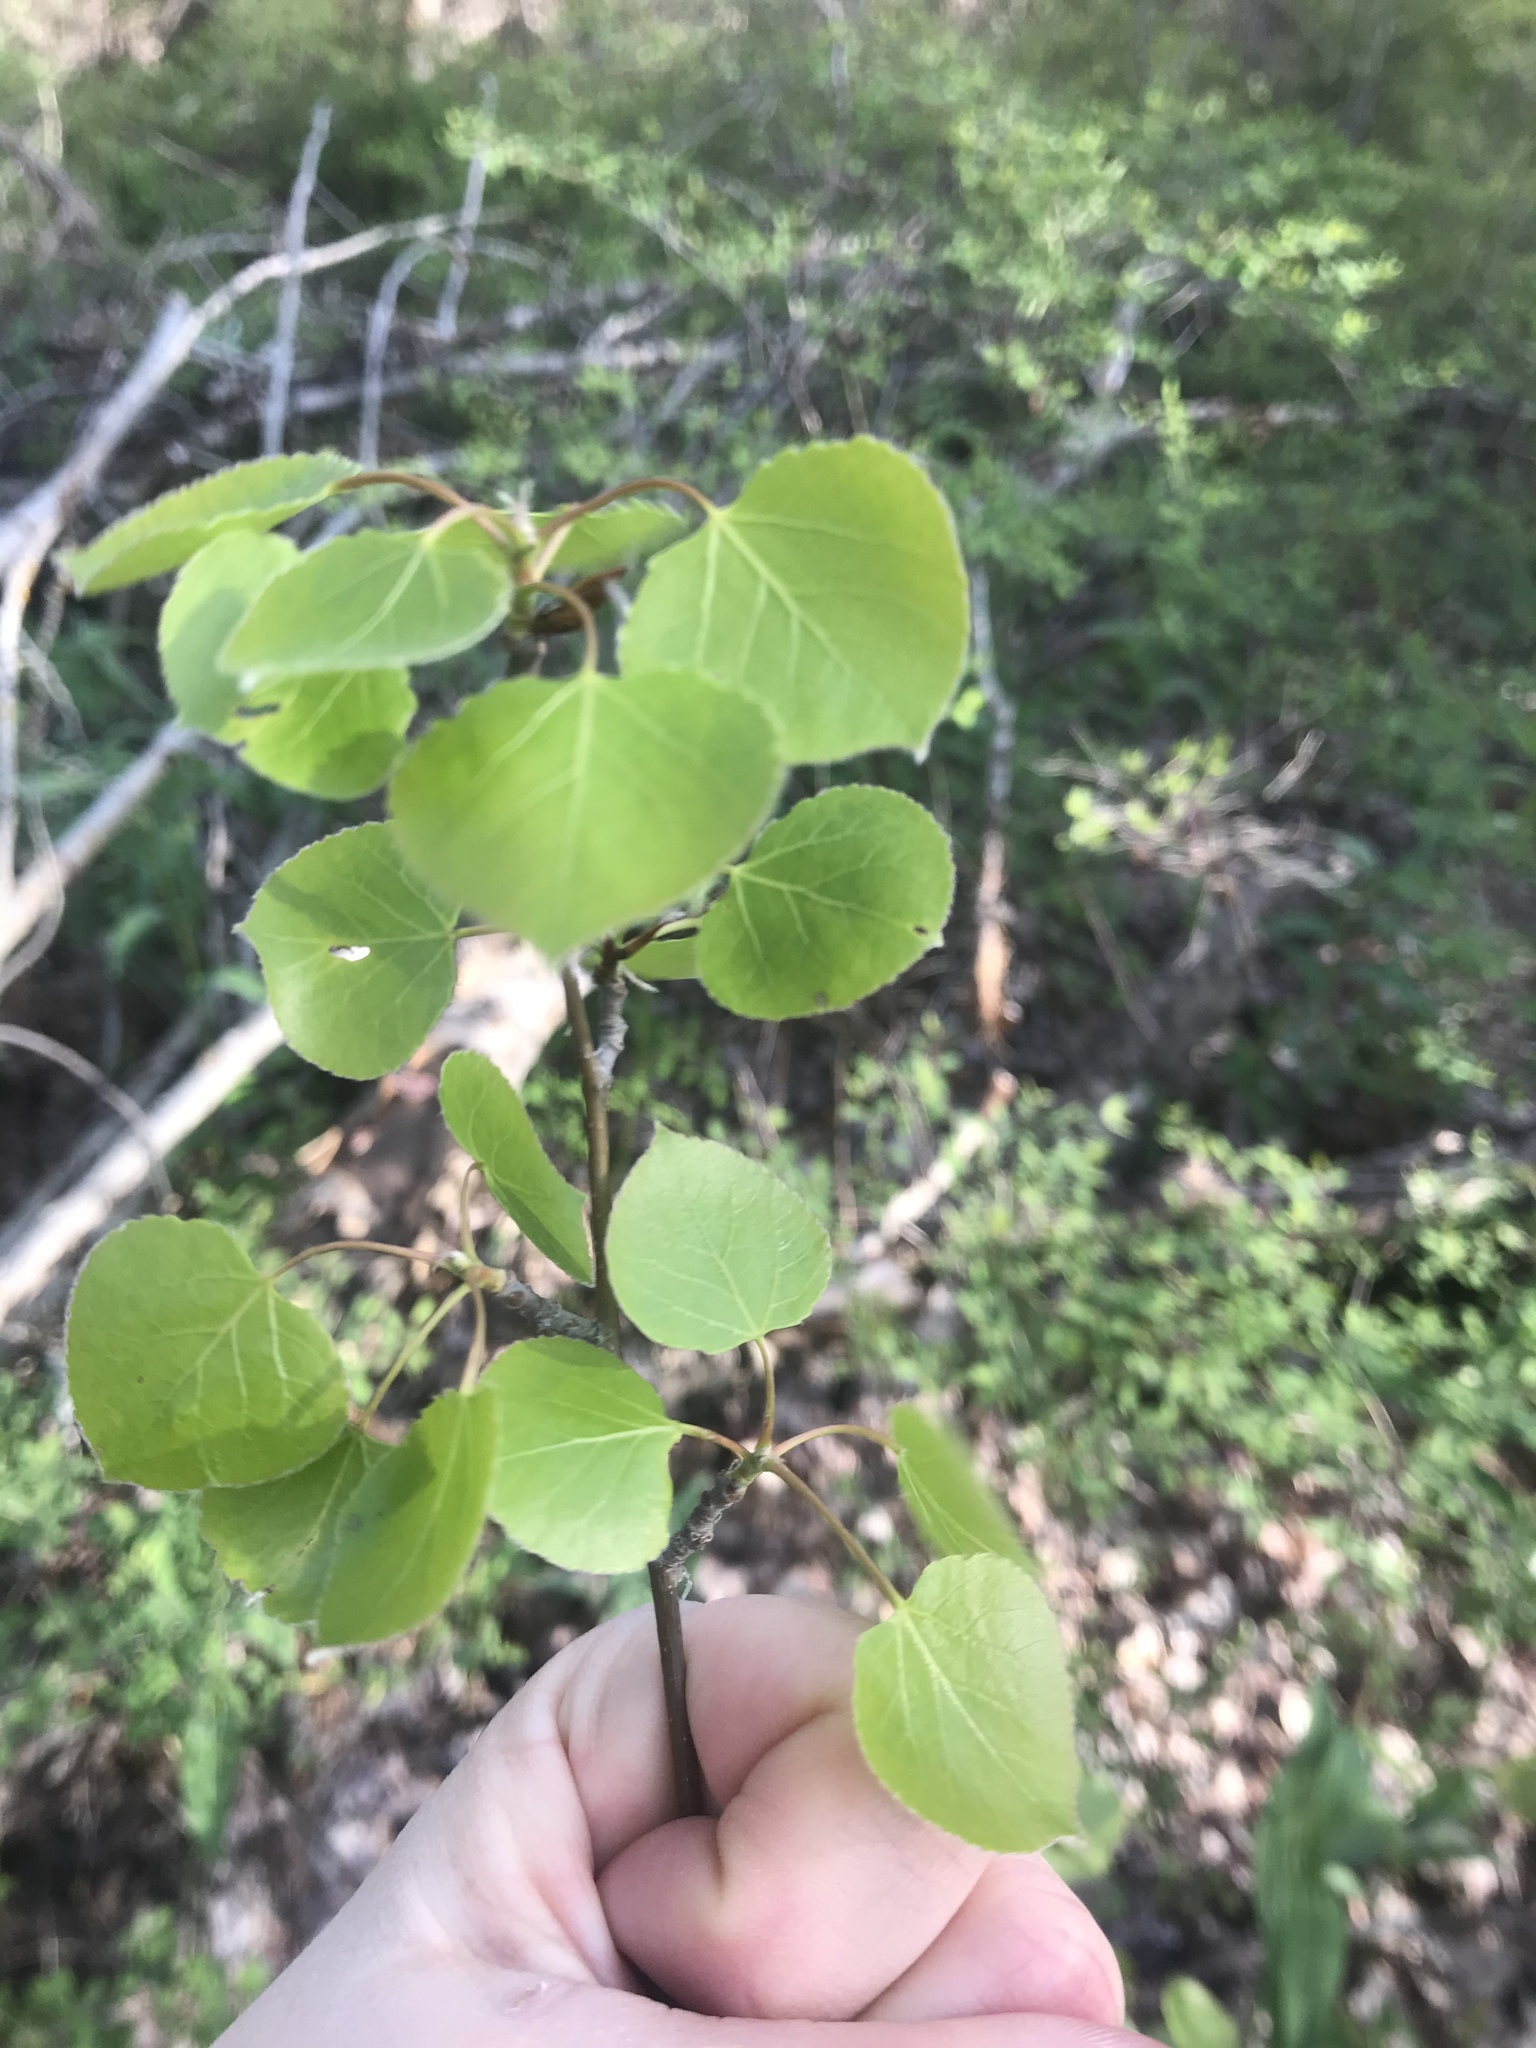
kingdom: Plantae
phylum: Tracheophyta
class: Magnoliopsida
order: Malpighiales
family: Salicaceae
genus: Populus
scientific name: Populus tremuloides
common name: Quaking aspen
